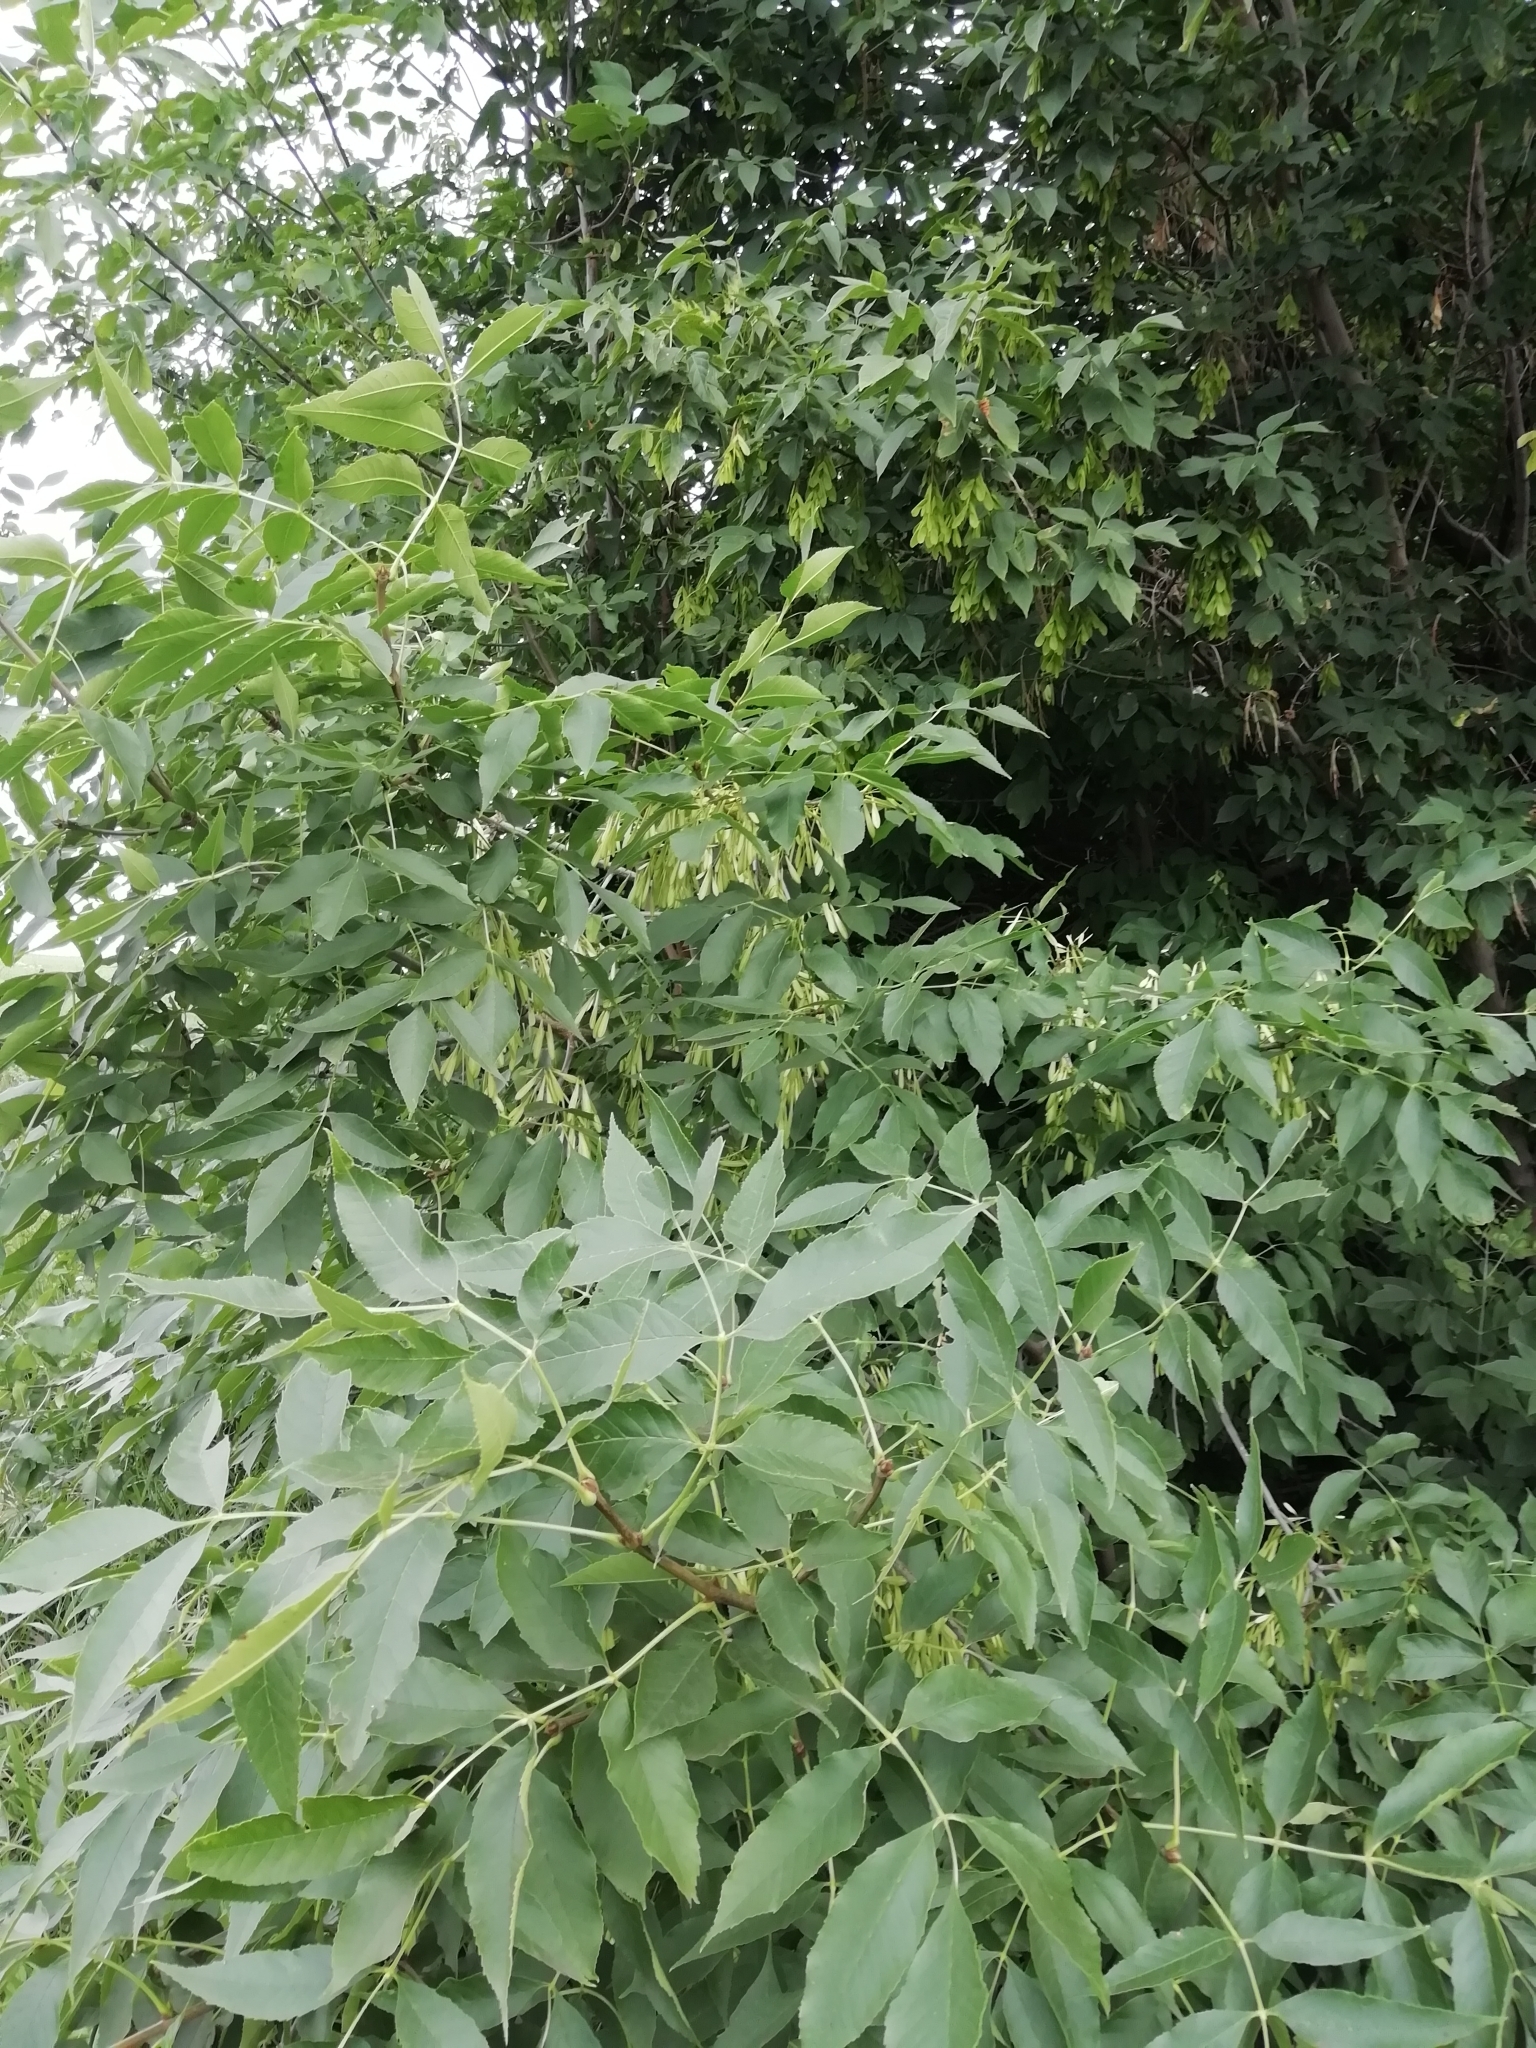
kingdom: Plantae
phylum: Tracheophyta
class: Magnoliopsida
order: Lamiales
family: Oleaceae
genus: Fraxinus
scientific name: Fraxinus pennsylvanica
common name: Green ash
